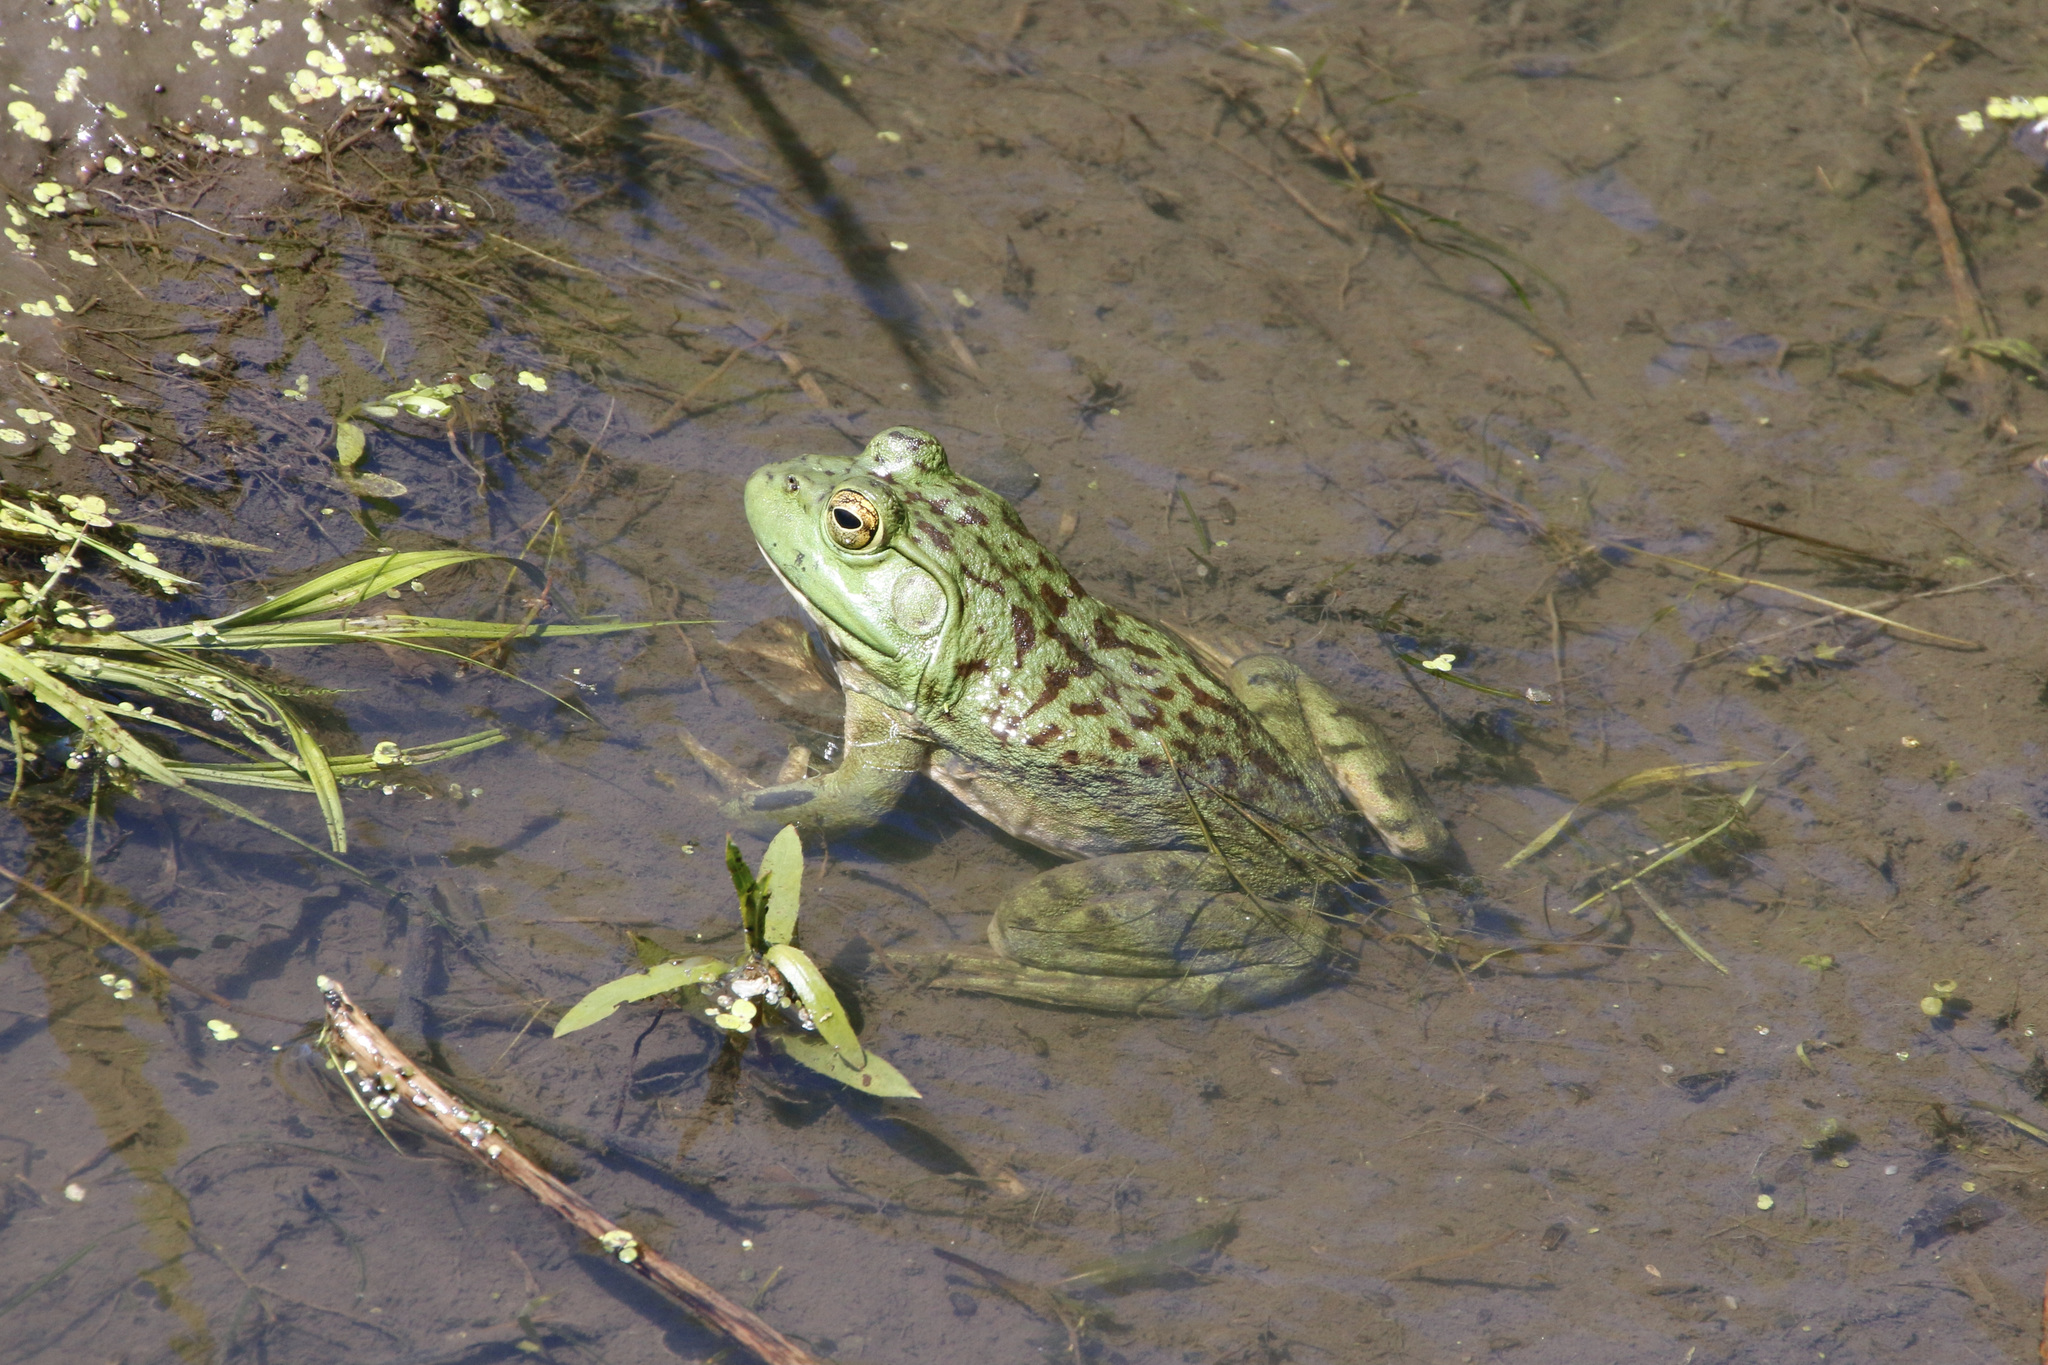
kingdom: Animalia
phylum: Chordata
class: Amphibia
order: Anura
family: Ranidae
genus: Lithobates
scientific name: Lithobates catesbeianus
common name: American bullfrog
